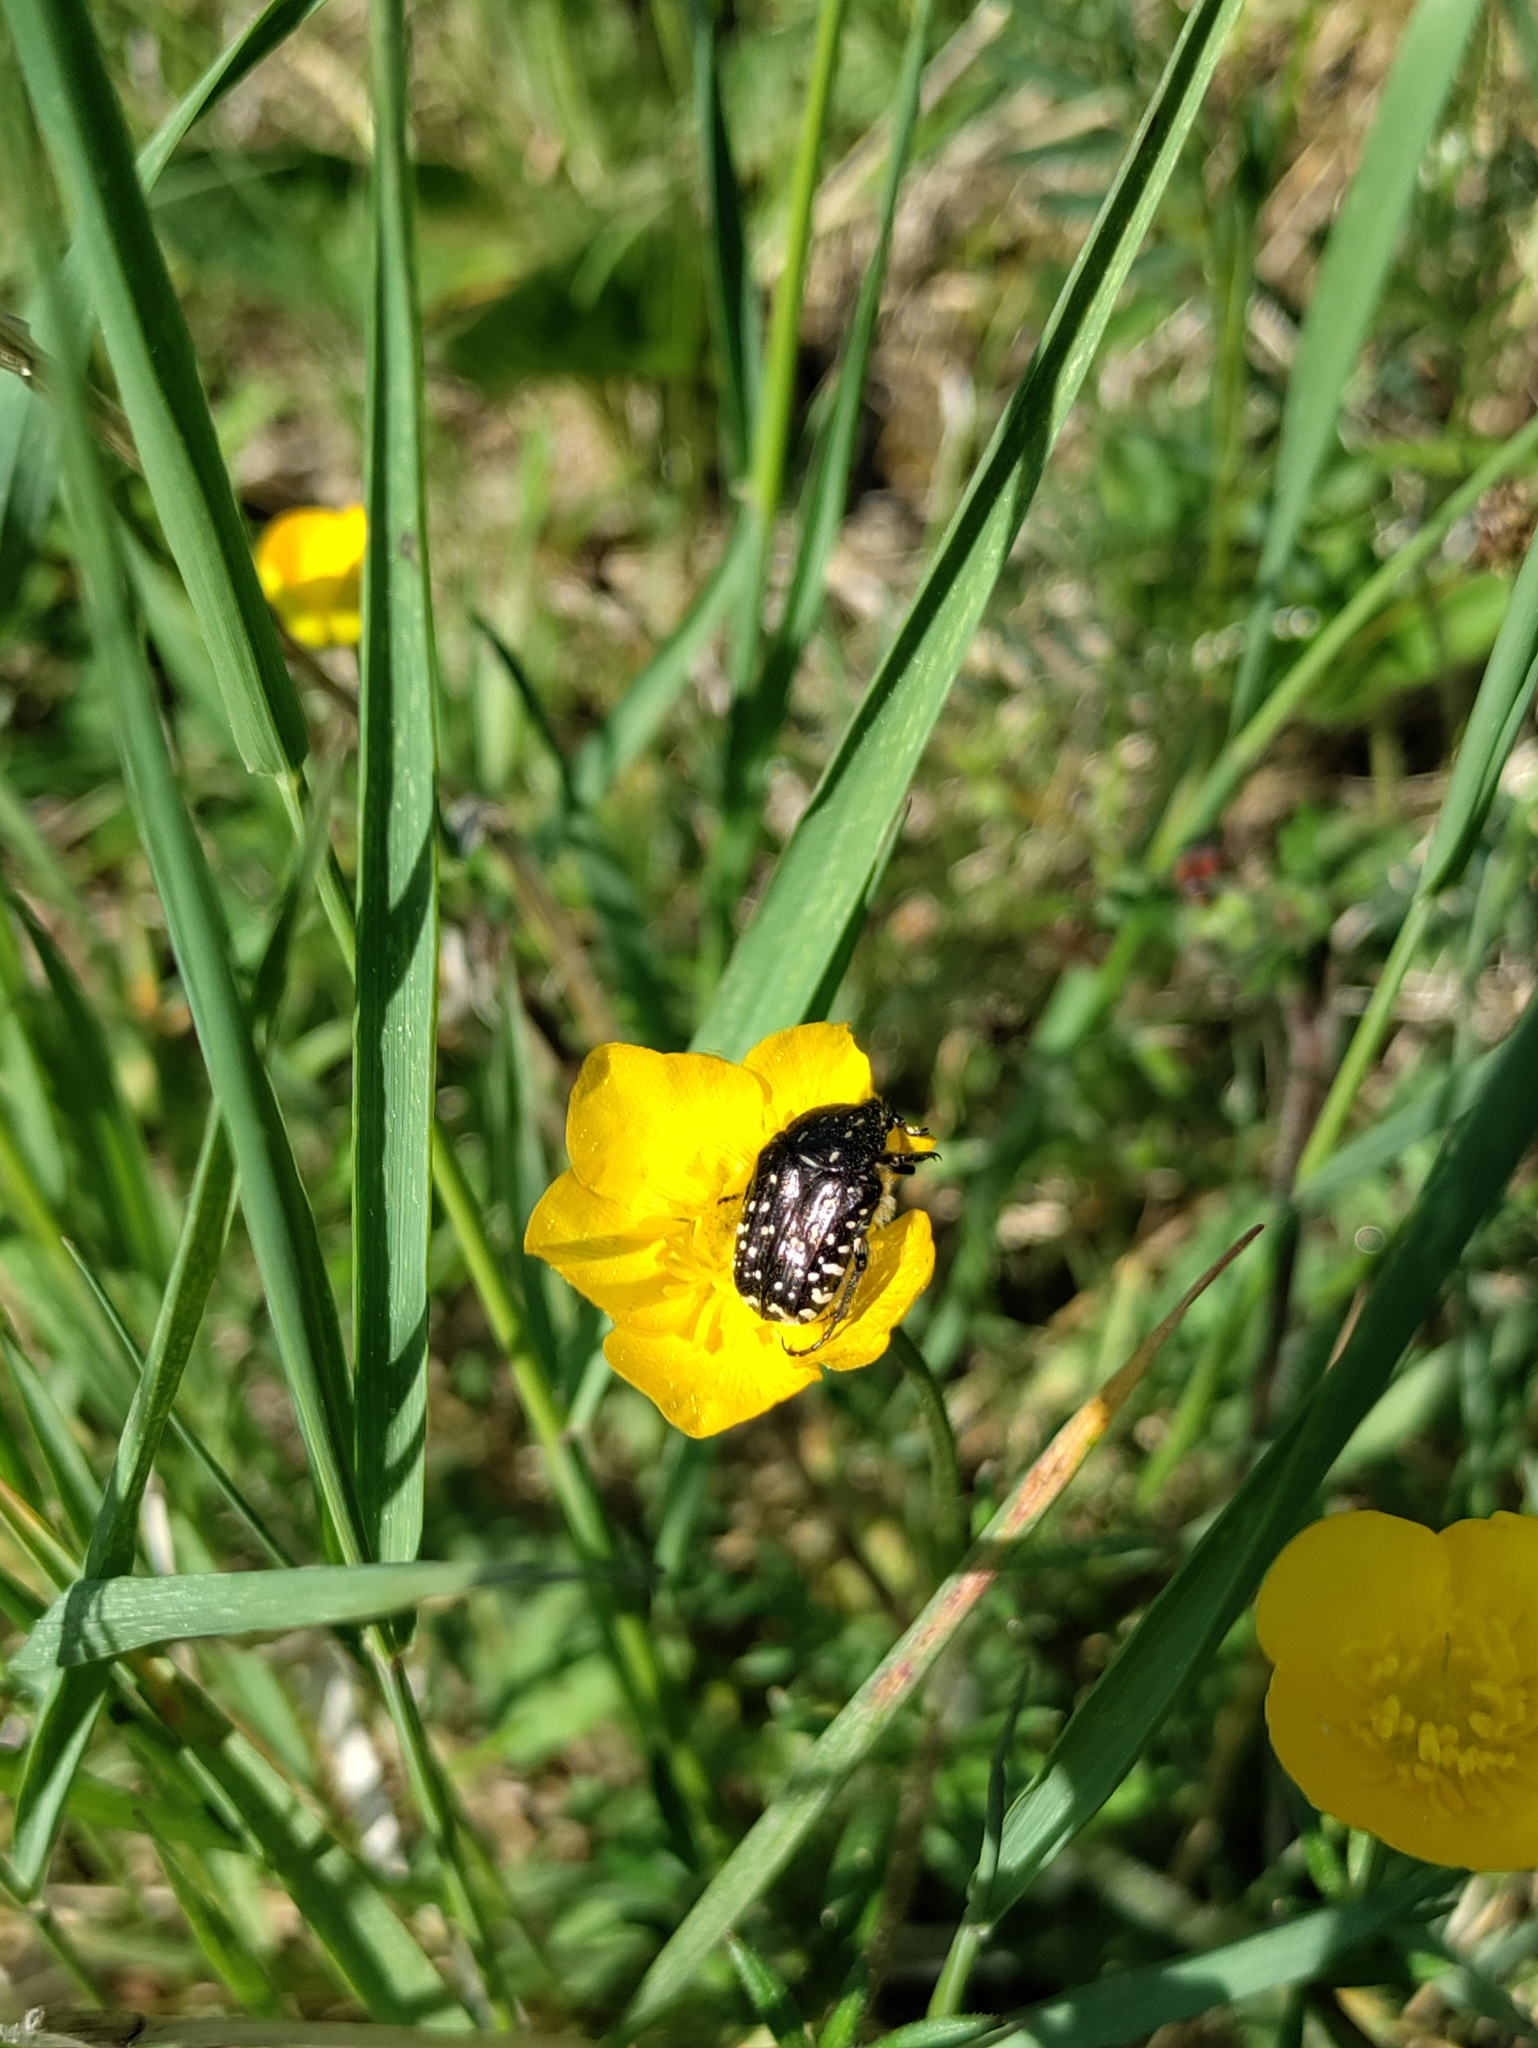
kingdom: Animalia
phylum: Arthropoda
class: Insecta
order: Coleoptera
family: Scarabaeidae
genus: Oxythyrea
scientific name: Oxythyrea funesta
